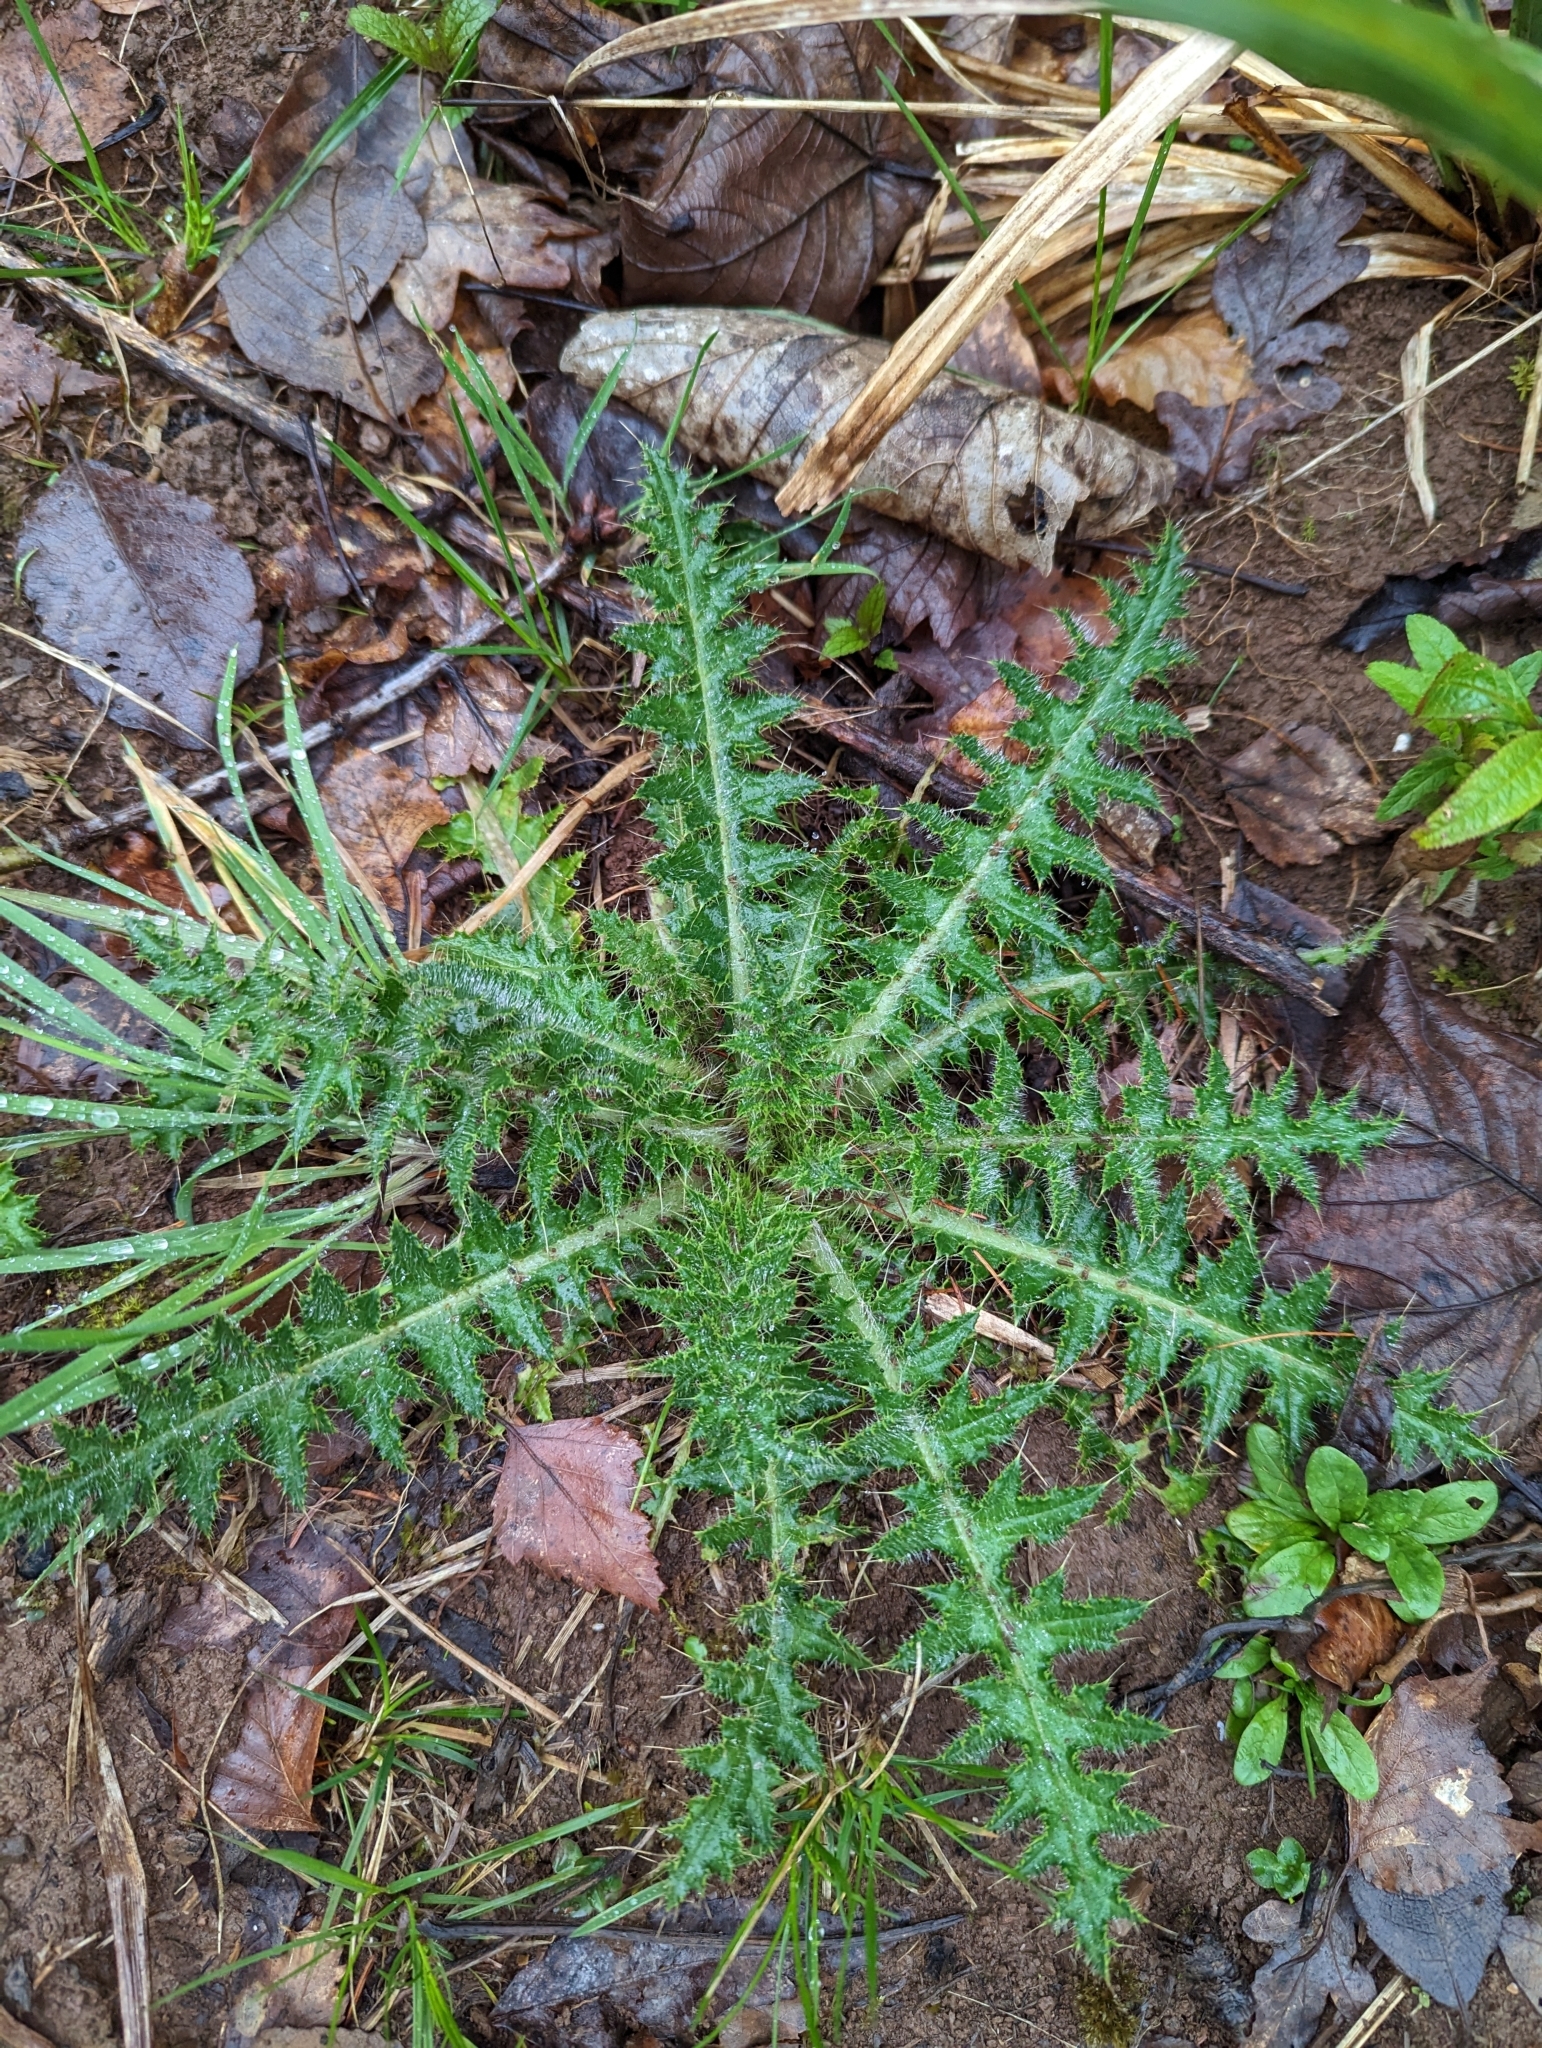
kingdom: Plantae
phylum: Tracheophyta
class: Magnoliopsida
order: Asterales
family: Asteraceae
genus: Cirsium
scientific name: Cirsium palustre
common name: Marsh thistle
